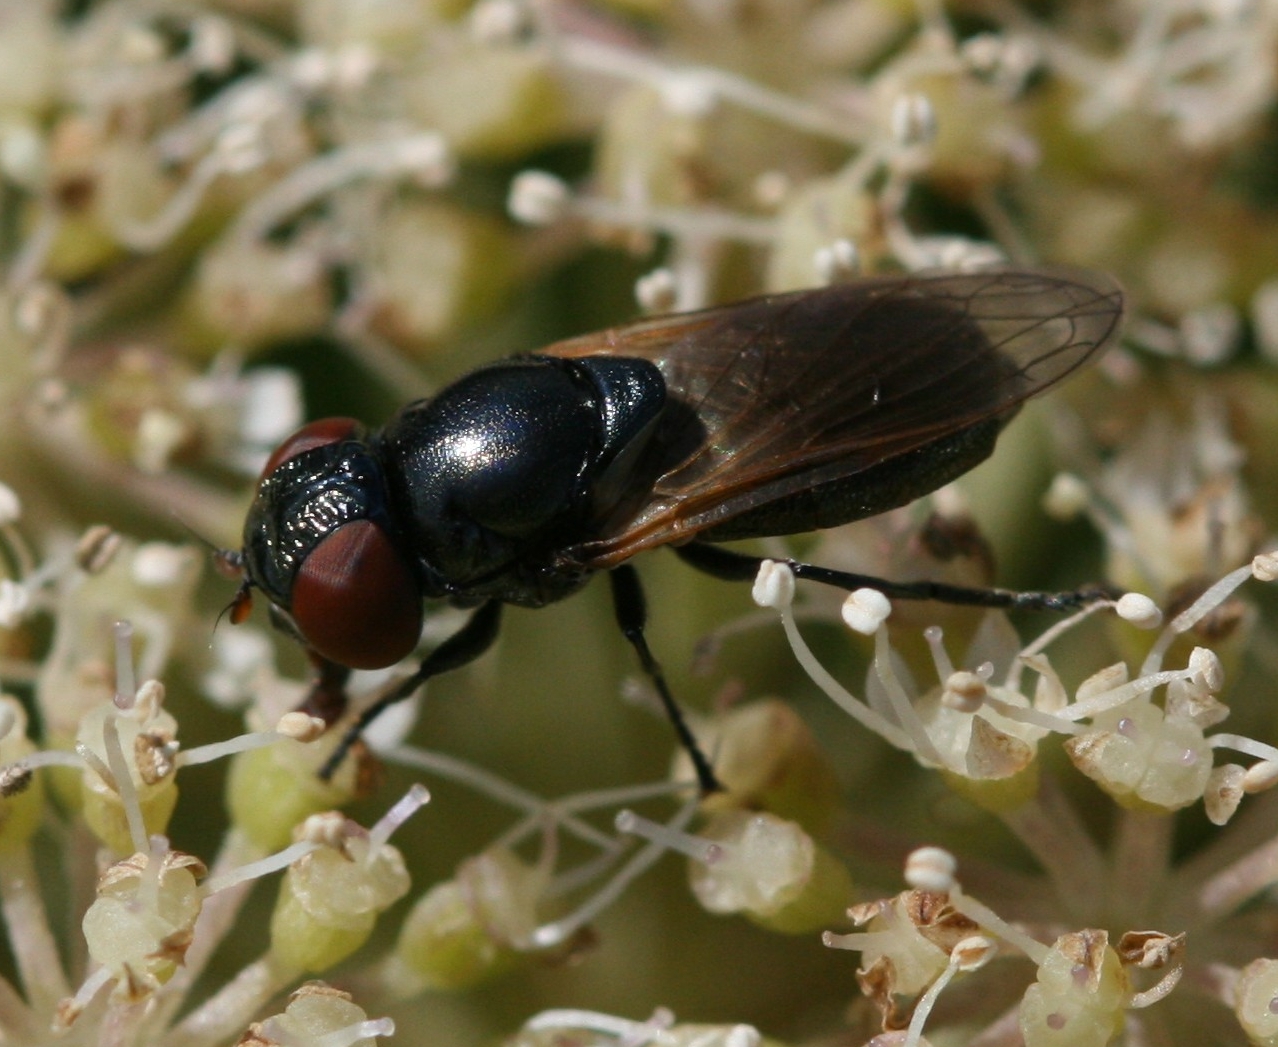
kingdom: Animalia
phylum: Arthropoda
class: Insecta
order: Diptera
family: Syrphidae
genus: Chrysogaster
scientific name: Chrysogaster cemiteriorum
